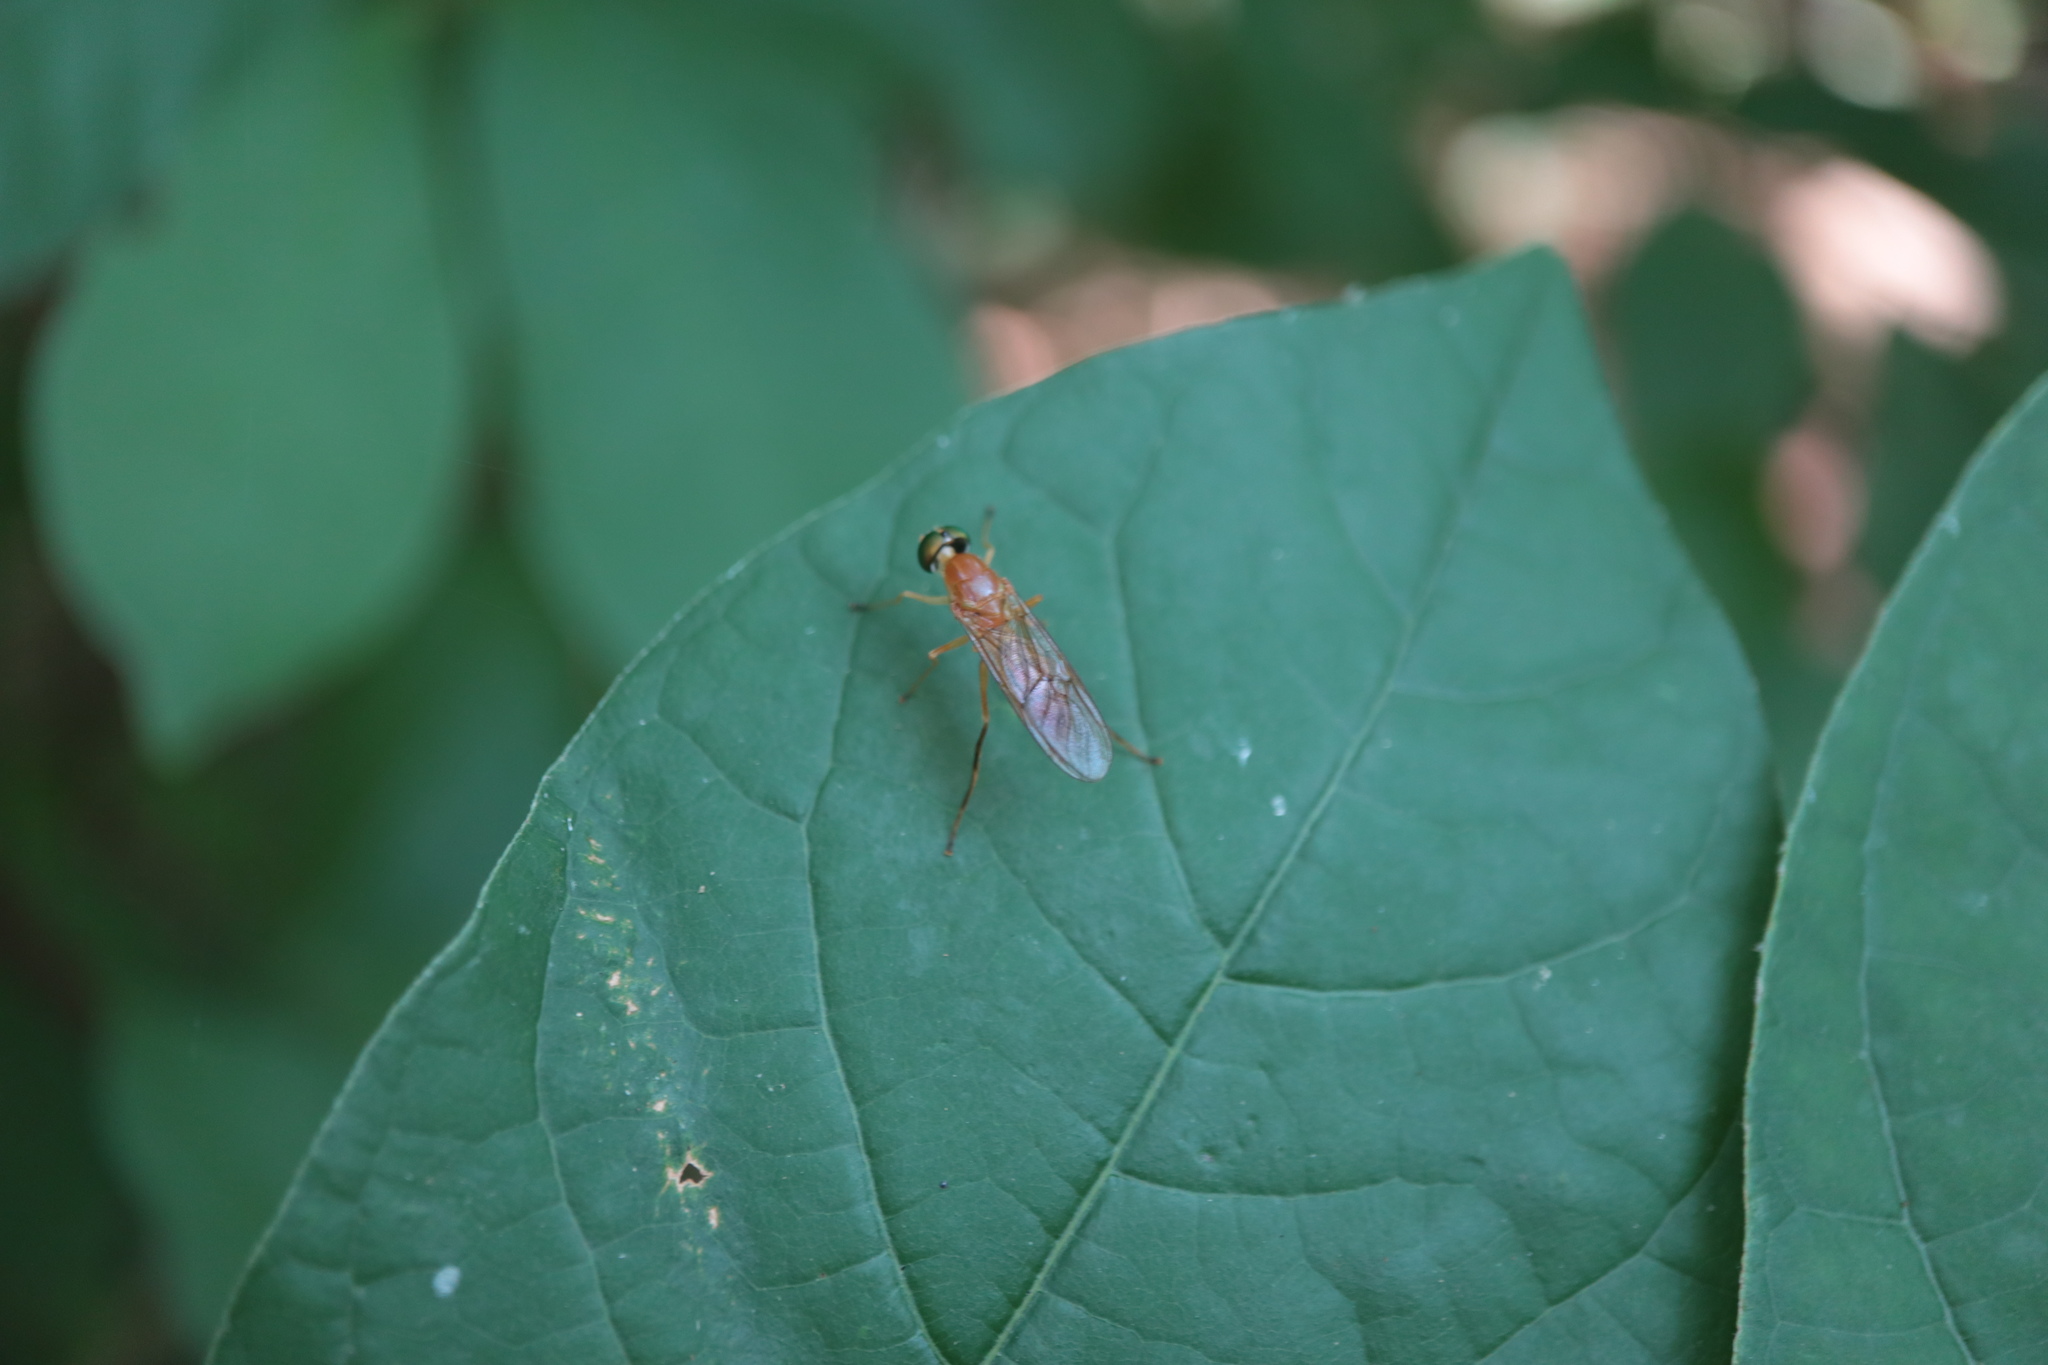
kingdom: Animalia
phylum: Arthropoda
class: Insecta
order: Diptera
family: Stratiomyidae
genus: Ptecticus
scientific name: Ptecticus trivittatus
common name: Compost fly
